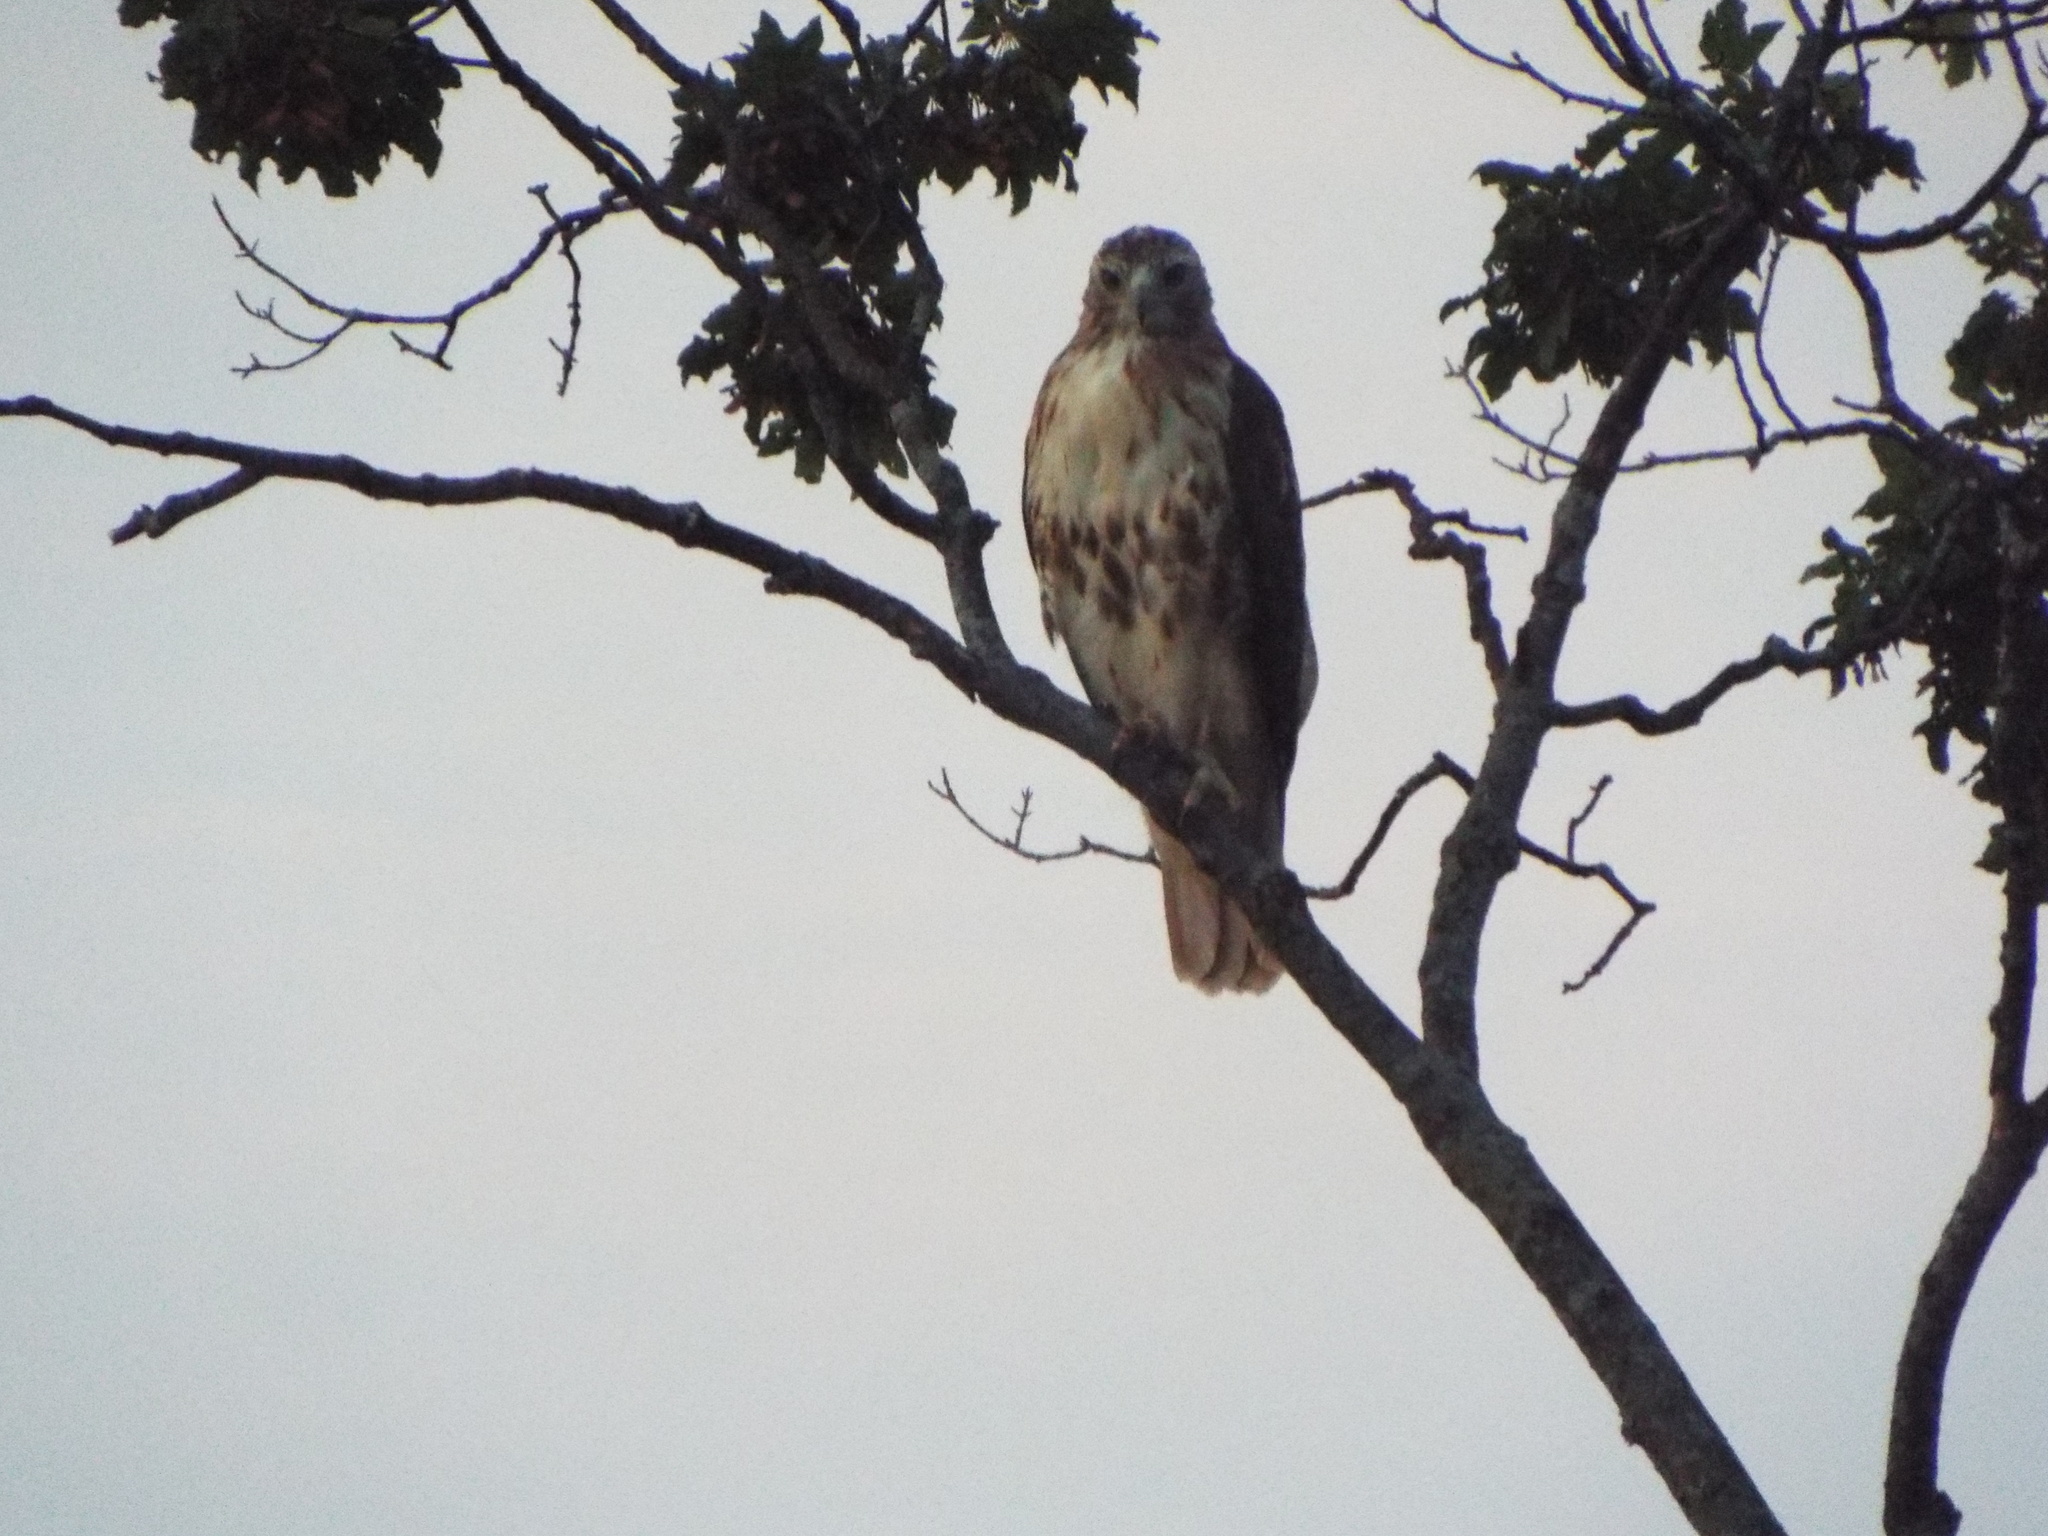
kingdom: Animalia
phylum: Chordata
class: Aves
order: Accipitriformes
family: Accipitridae
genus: Buteo
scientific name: Buteo jamaicensis
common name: Red-tailed hawk
